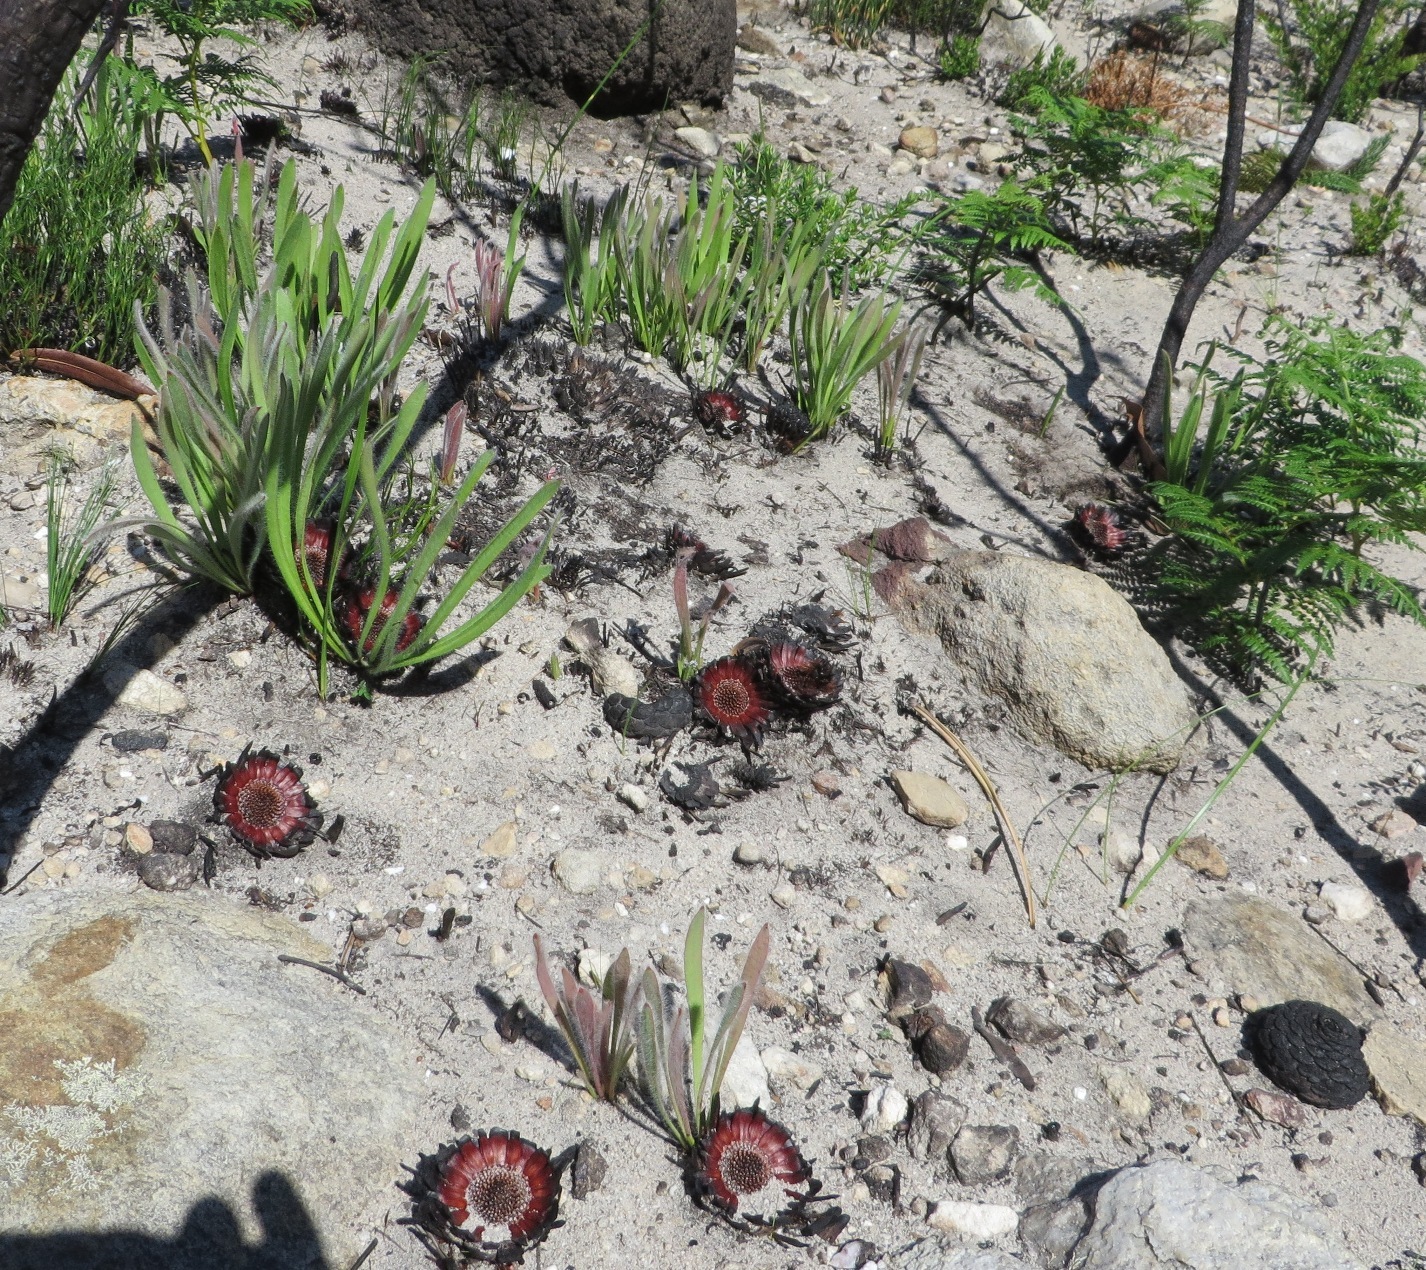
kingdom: Plantae
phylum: Tracheophyta
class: Magnoliopsida
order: Proteales
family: Proteaceae
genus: Protea
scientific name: Protea scabra
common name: Sandpaper-leaf sugarbush
